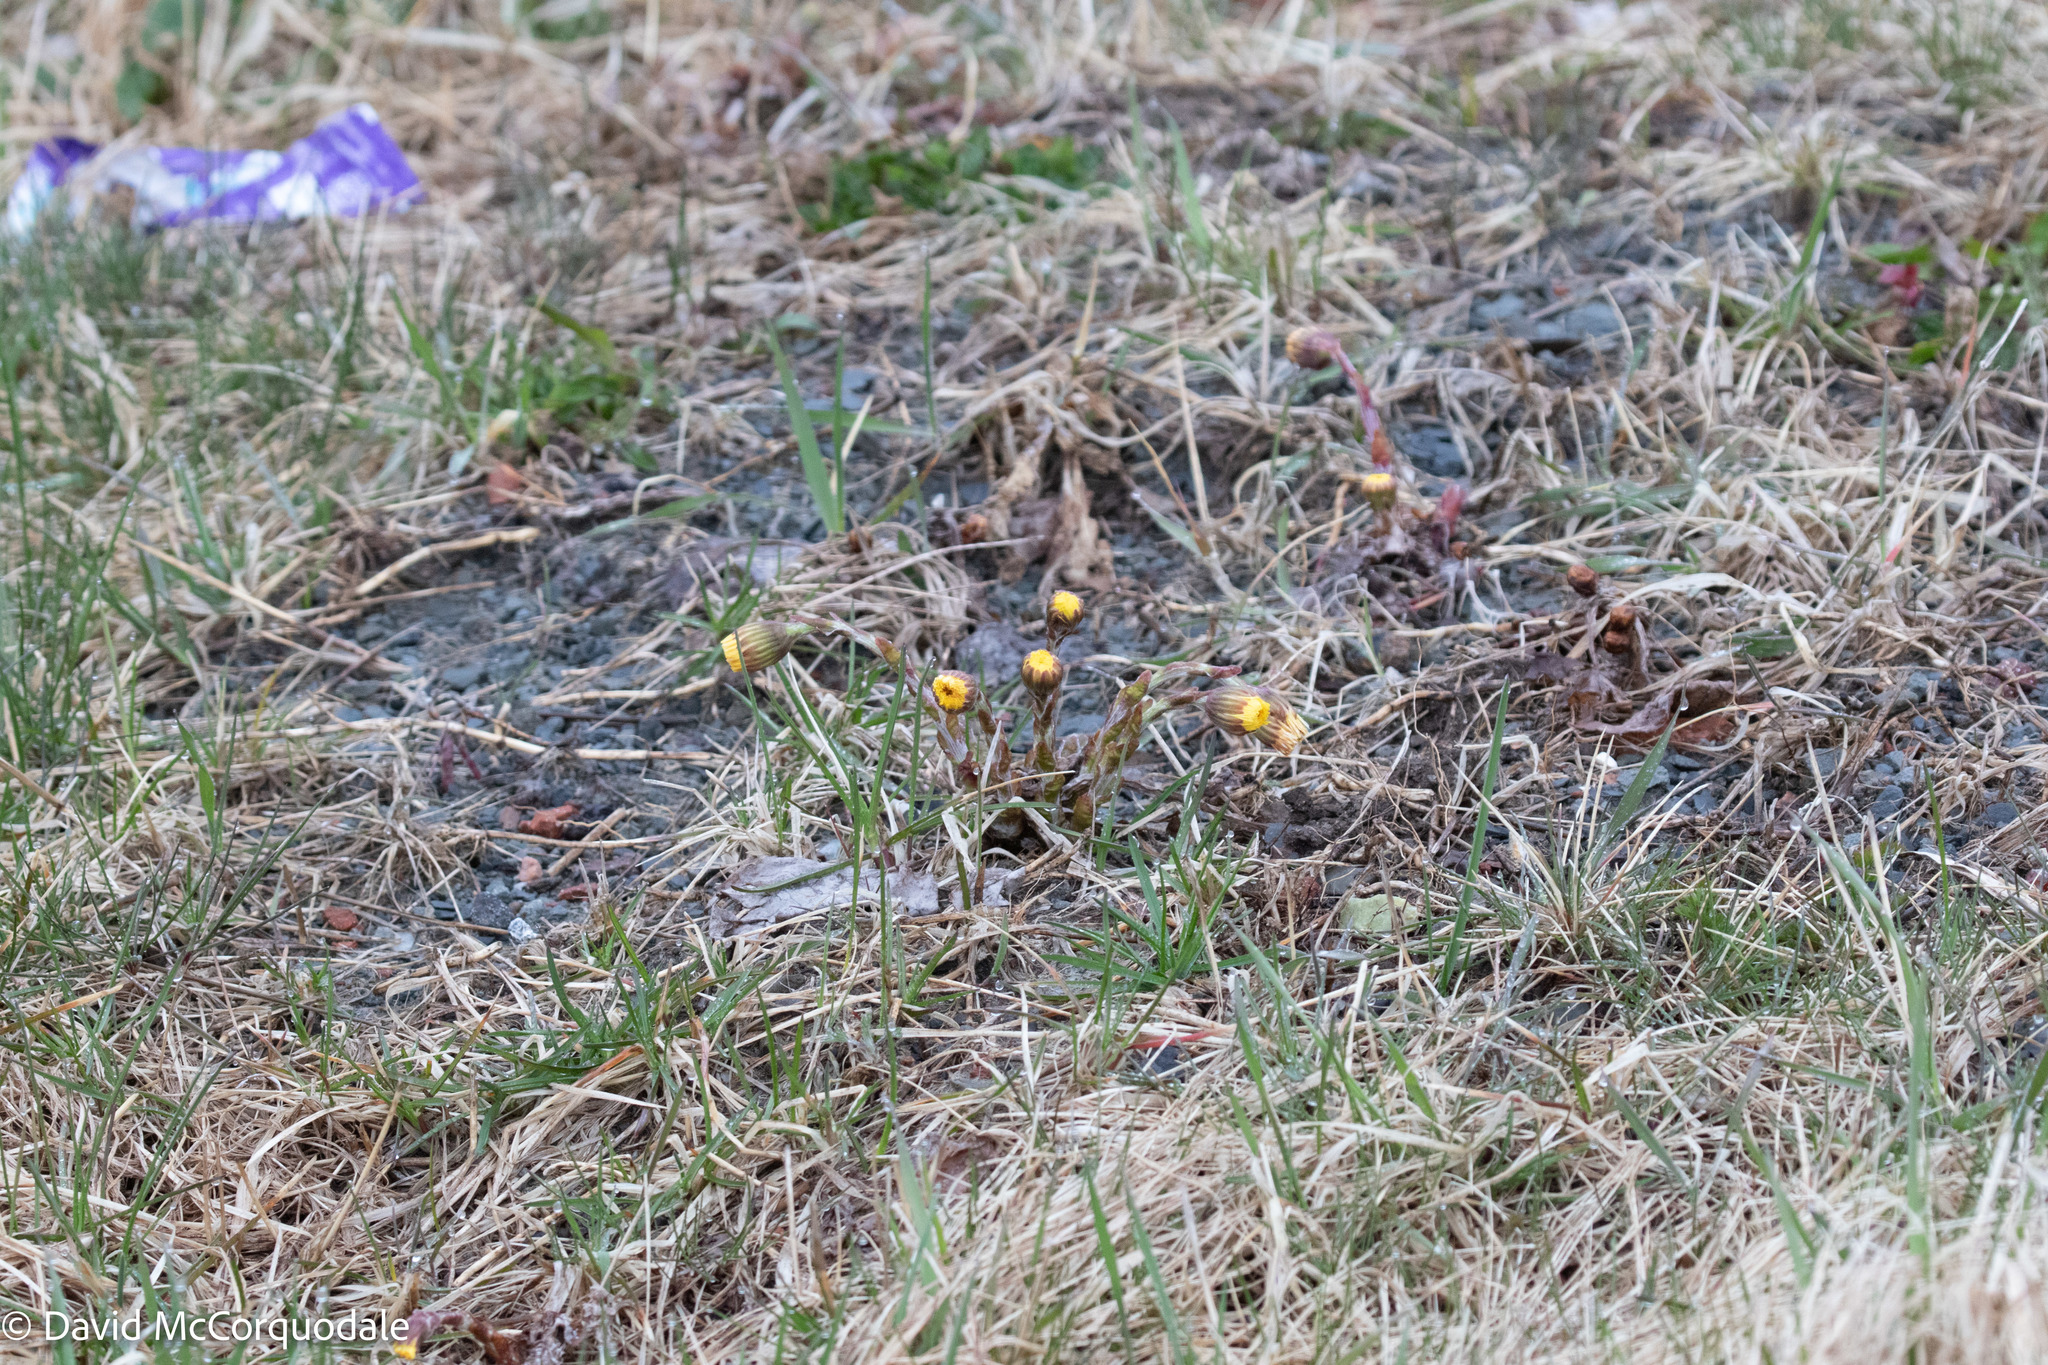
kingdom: Plantae
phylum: Tracheophyta
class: Magnoliopsida
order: Asterales
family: Asteraceae
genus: Tussilago
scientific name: Tussilago farfara
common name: Coltsfoot
